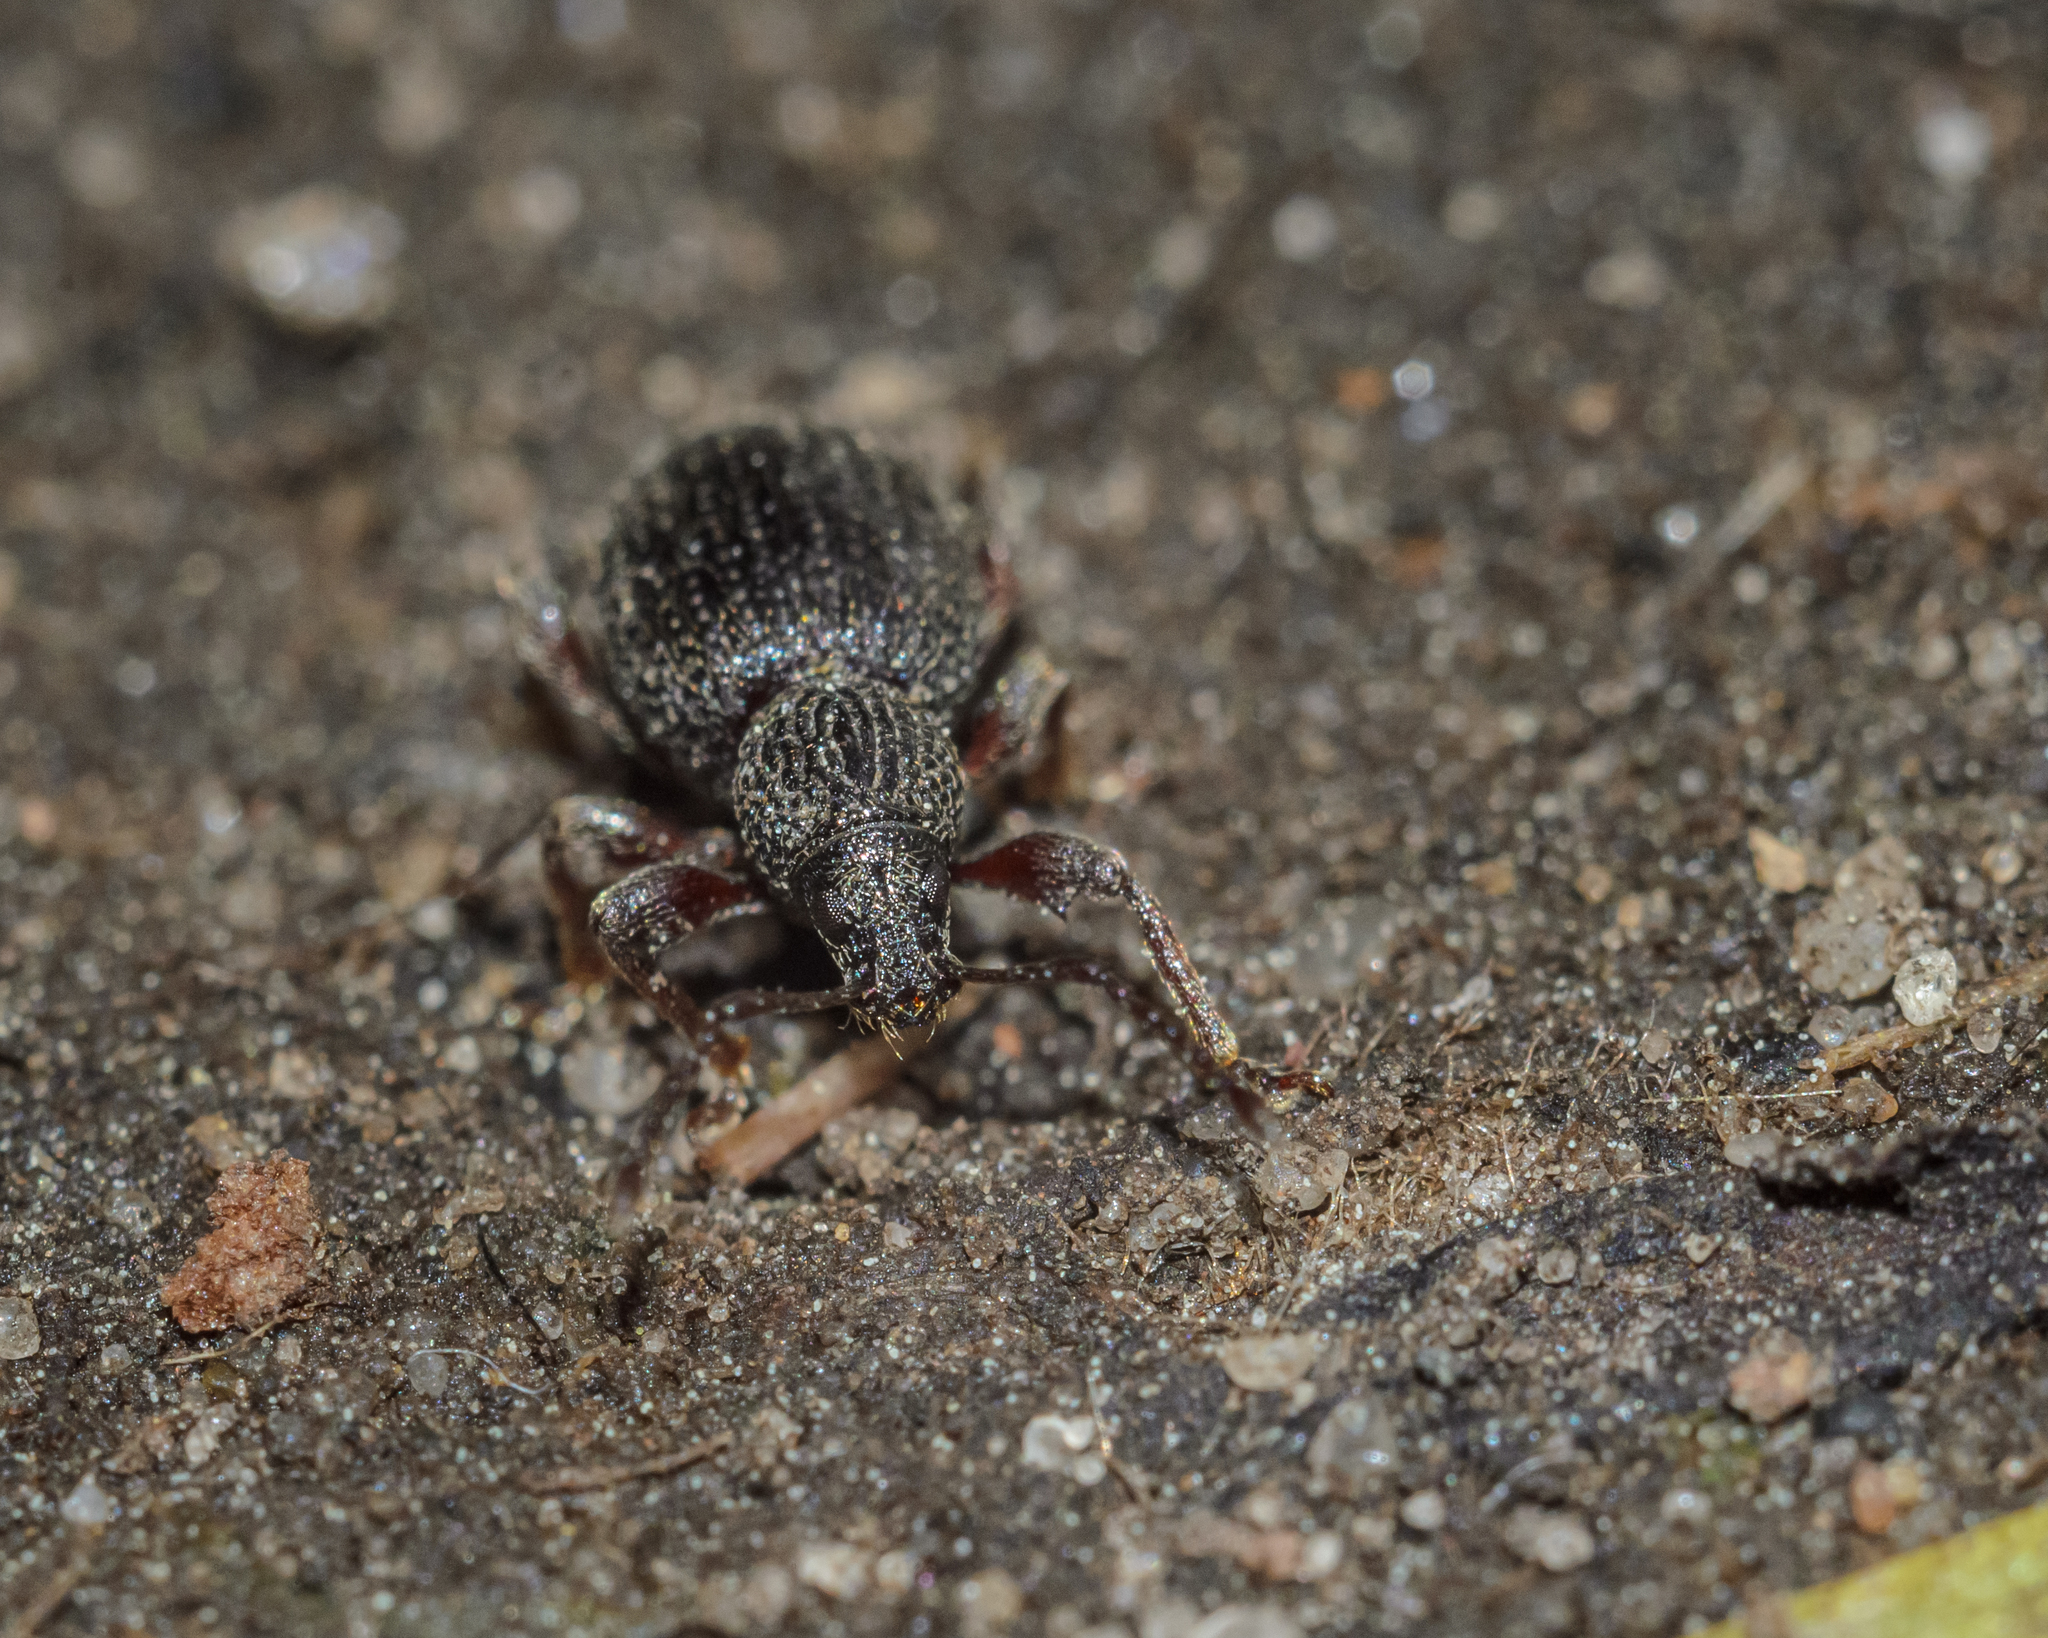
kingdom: Animalia
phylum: Arthropoda
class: Insecta
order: Coleoptera
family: Curculionidae
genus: Otiorhynchus
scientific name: Otiorhynchus ovatus
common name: Strawberry root weevil
